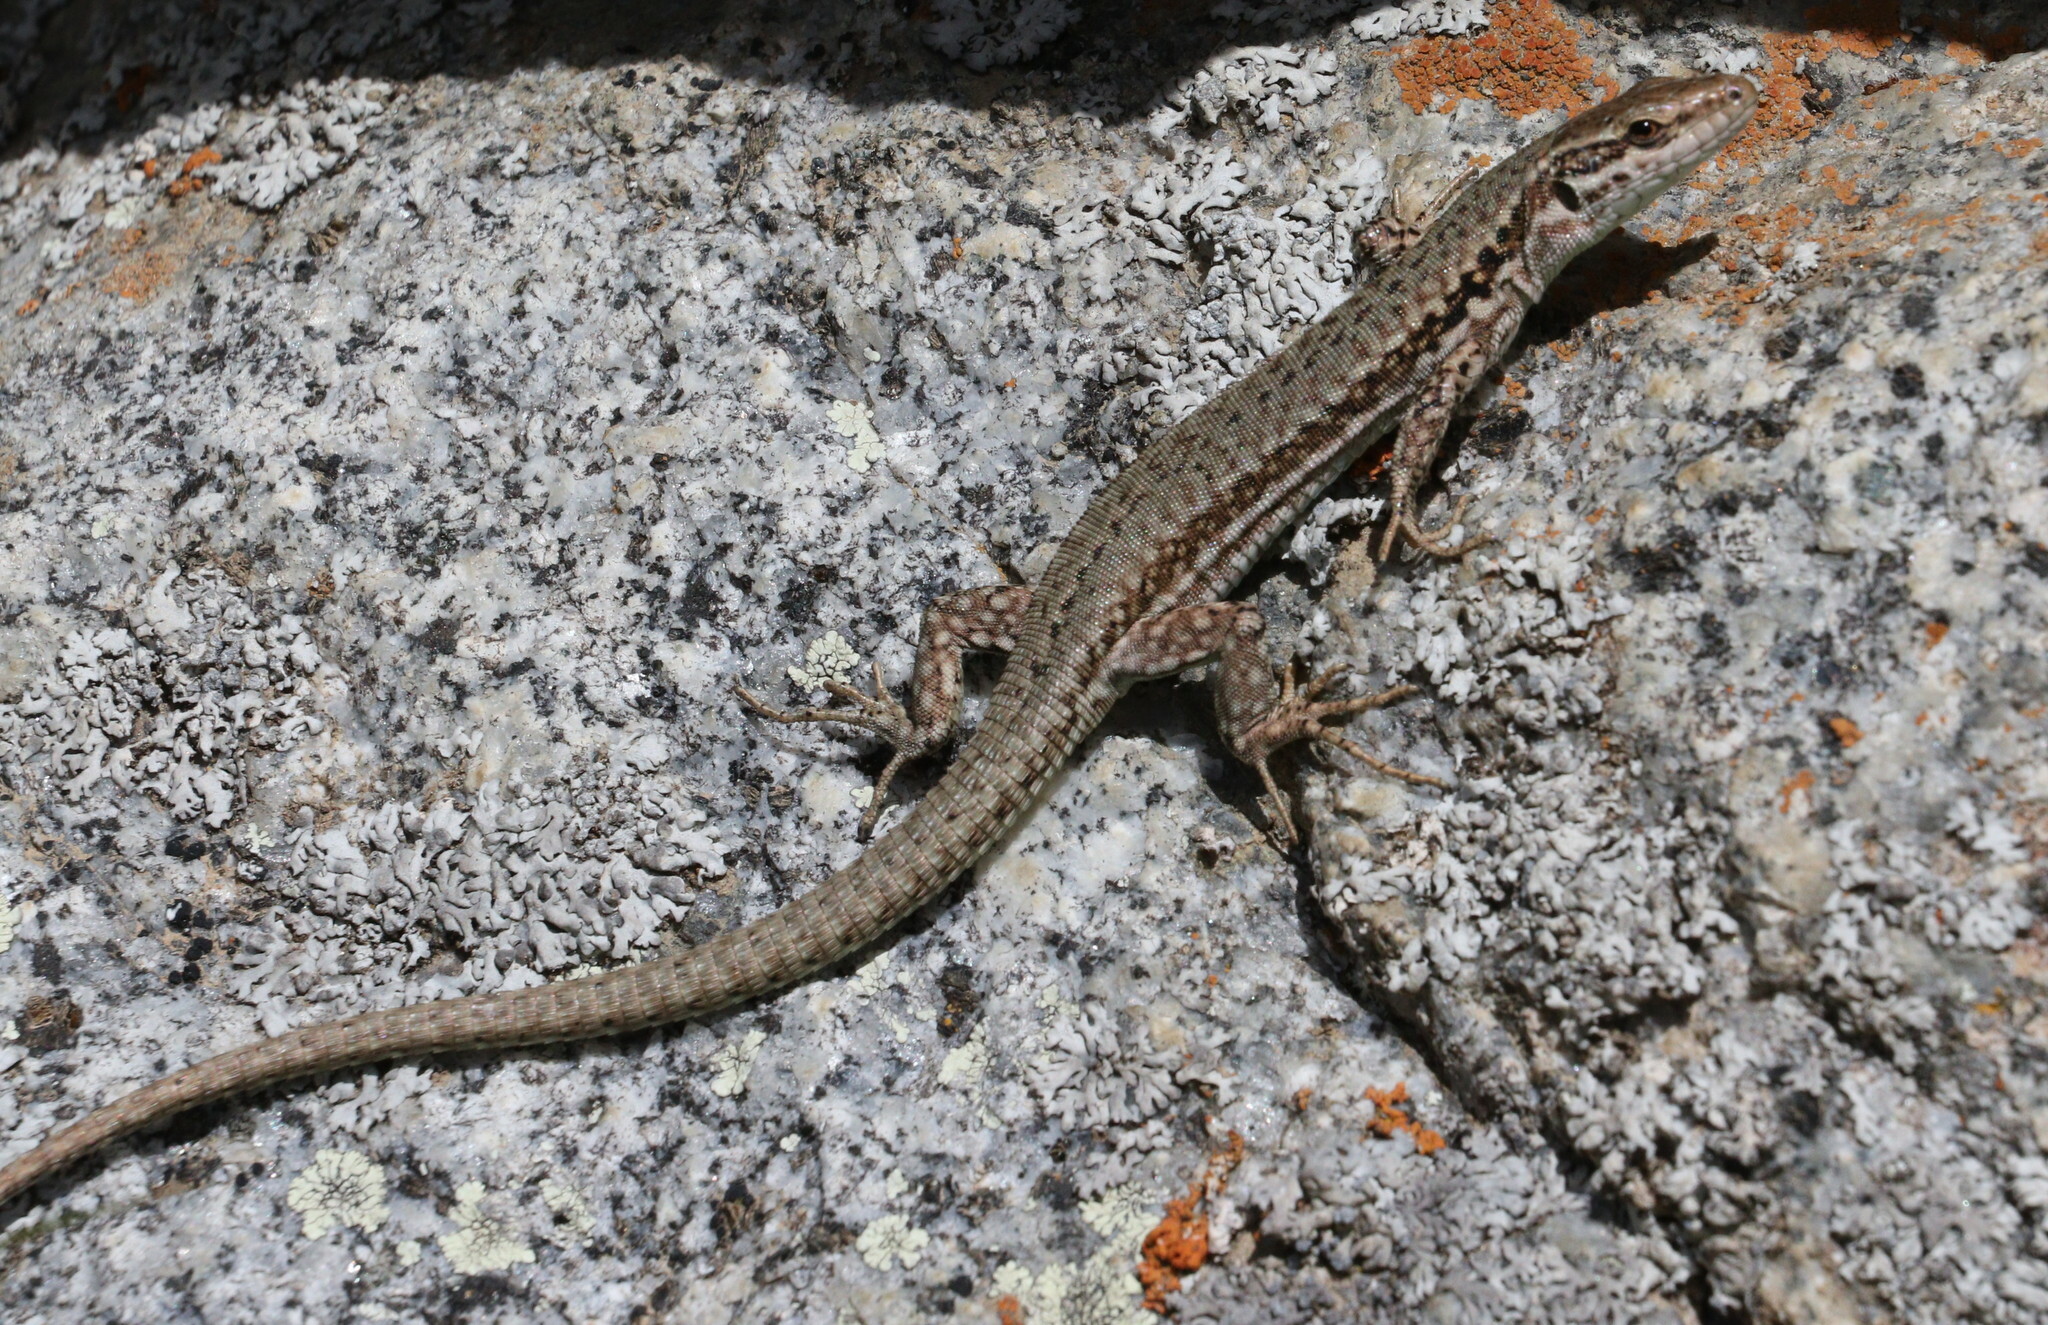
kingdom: Animalia
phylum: Chordata
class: Squamata
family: Lacertidae
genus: Podarcis
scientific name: Podarcis muralis
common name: Common wall lizard
